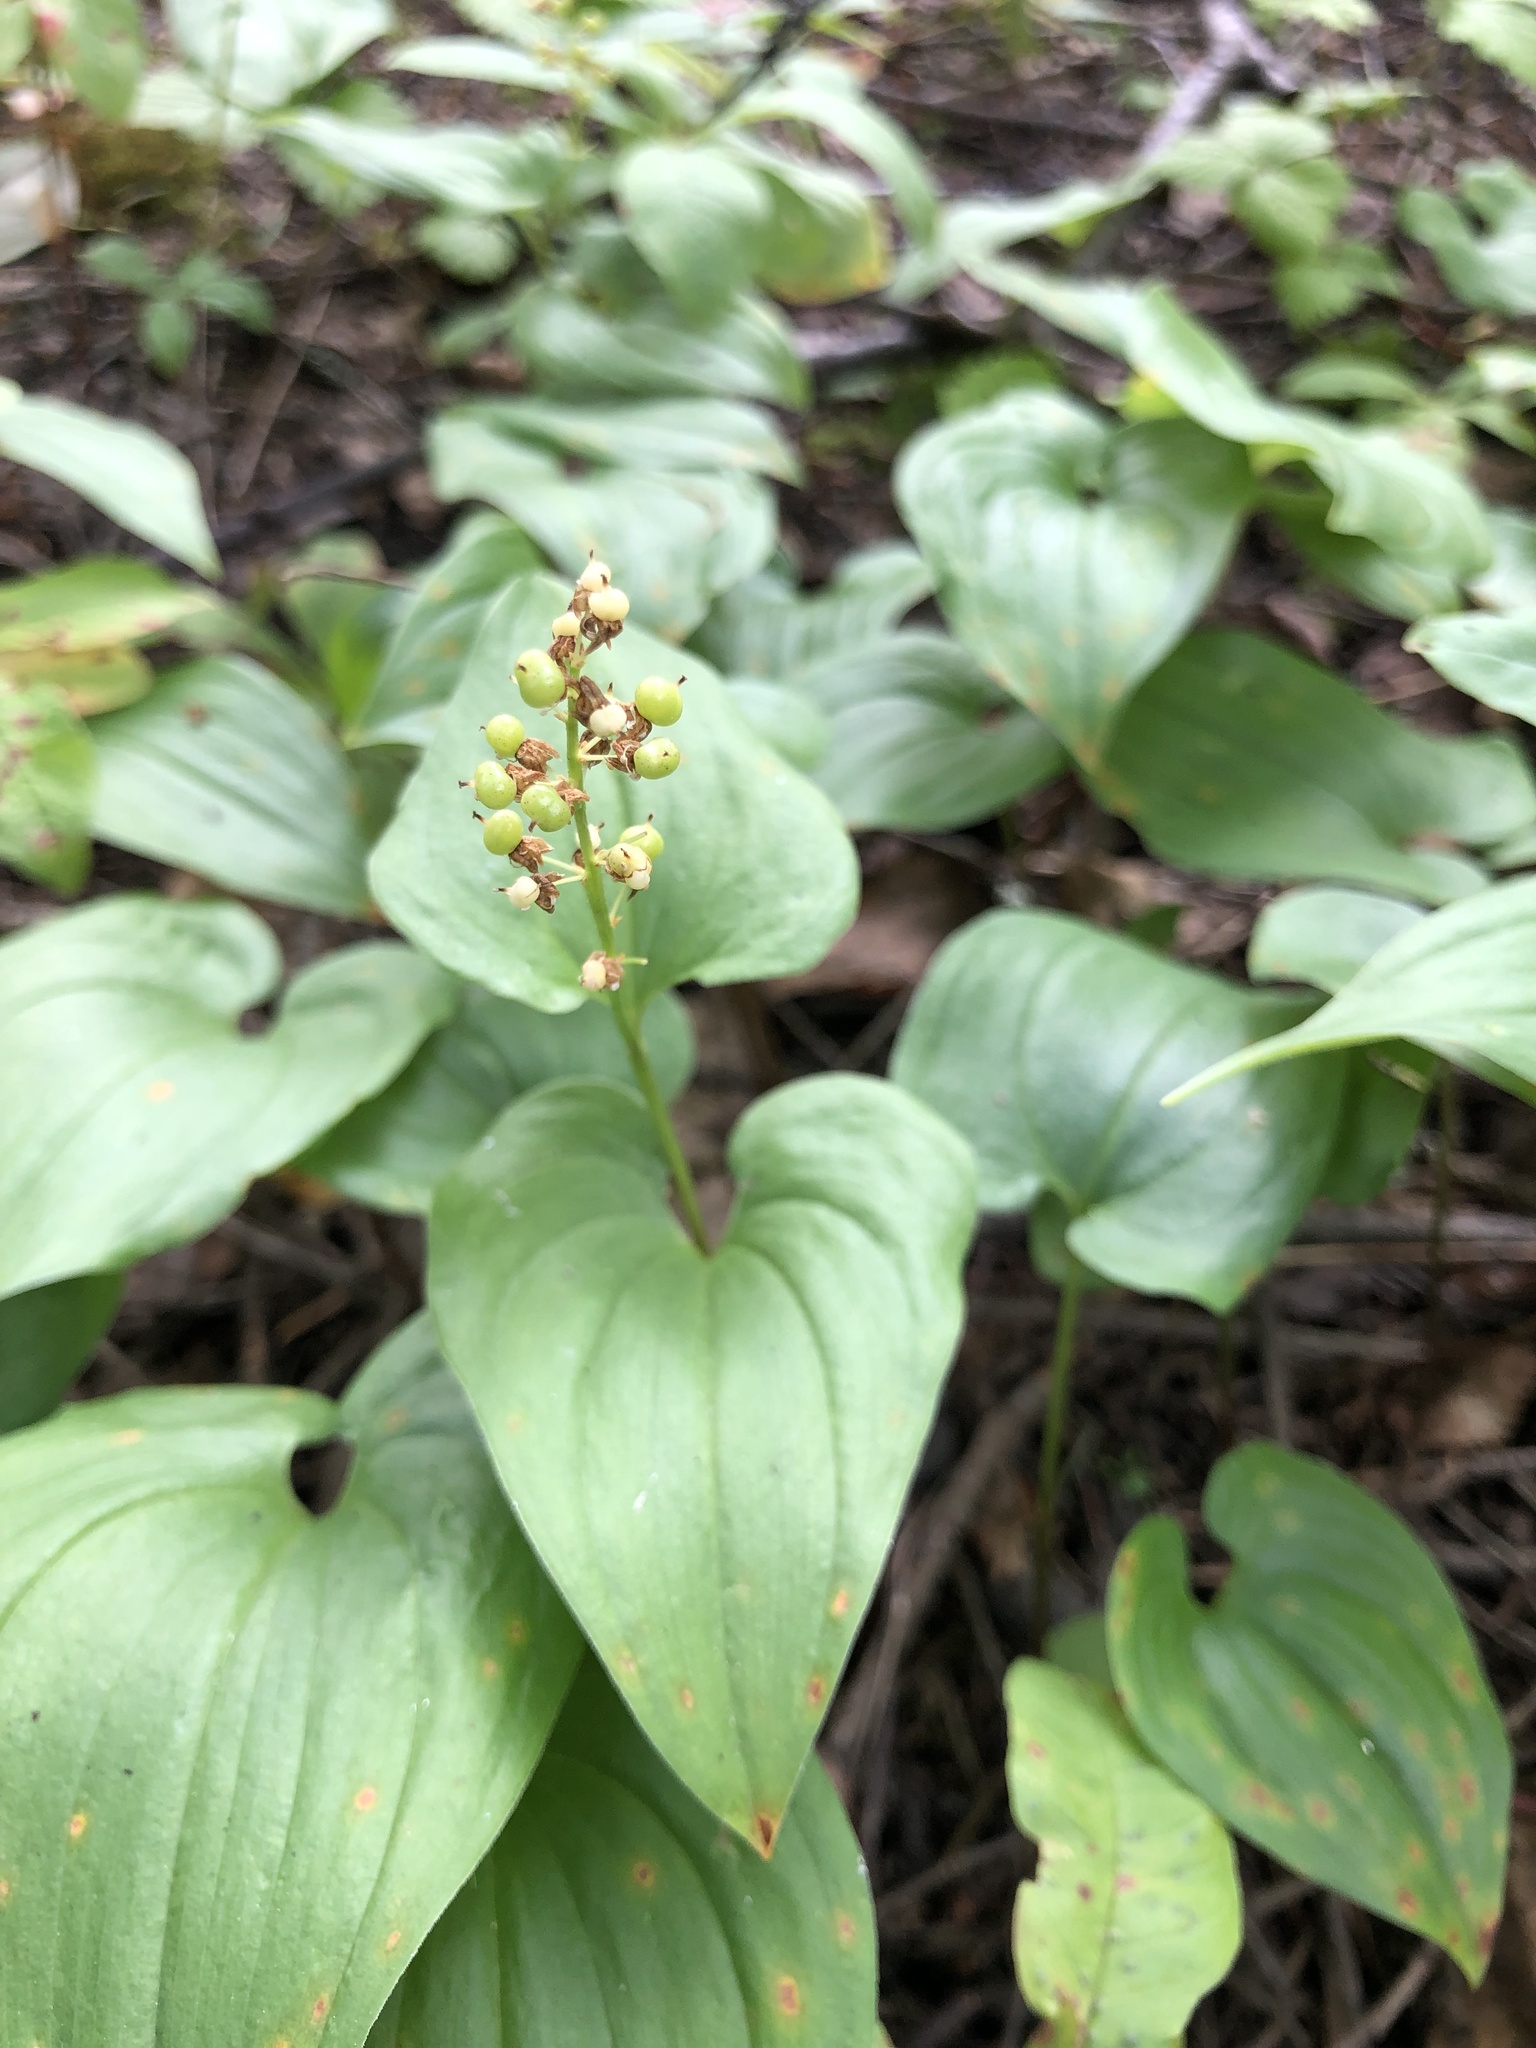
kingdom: Plantae
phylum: Tracheophyta
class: Liliopsida
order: Asparagales
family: Asparagaceae
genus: Maianthemum
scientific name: Maianthemum bifolium
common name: May lily
